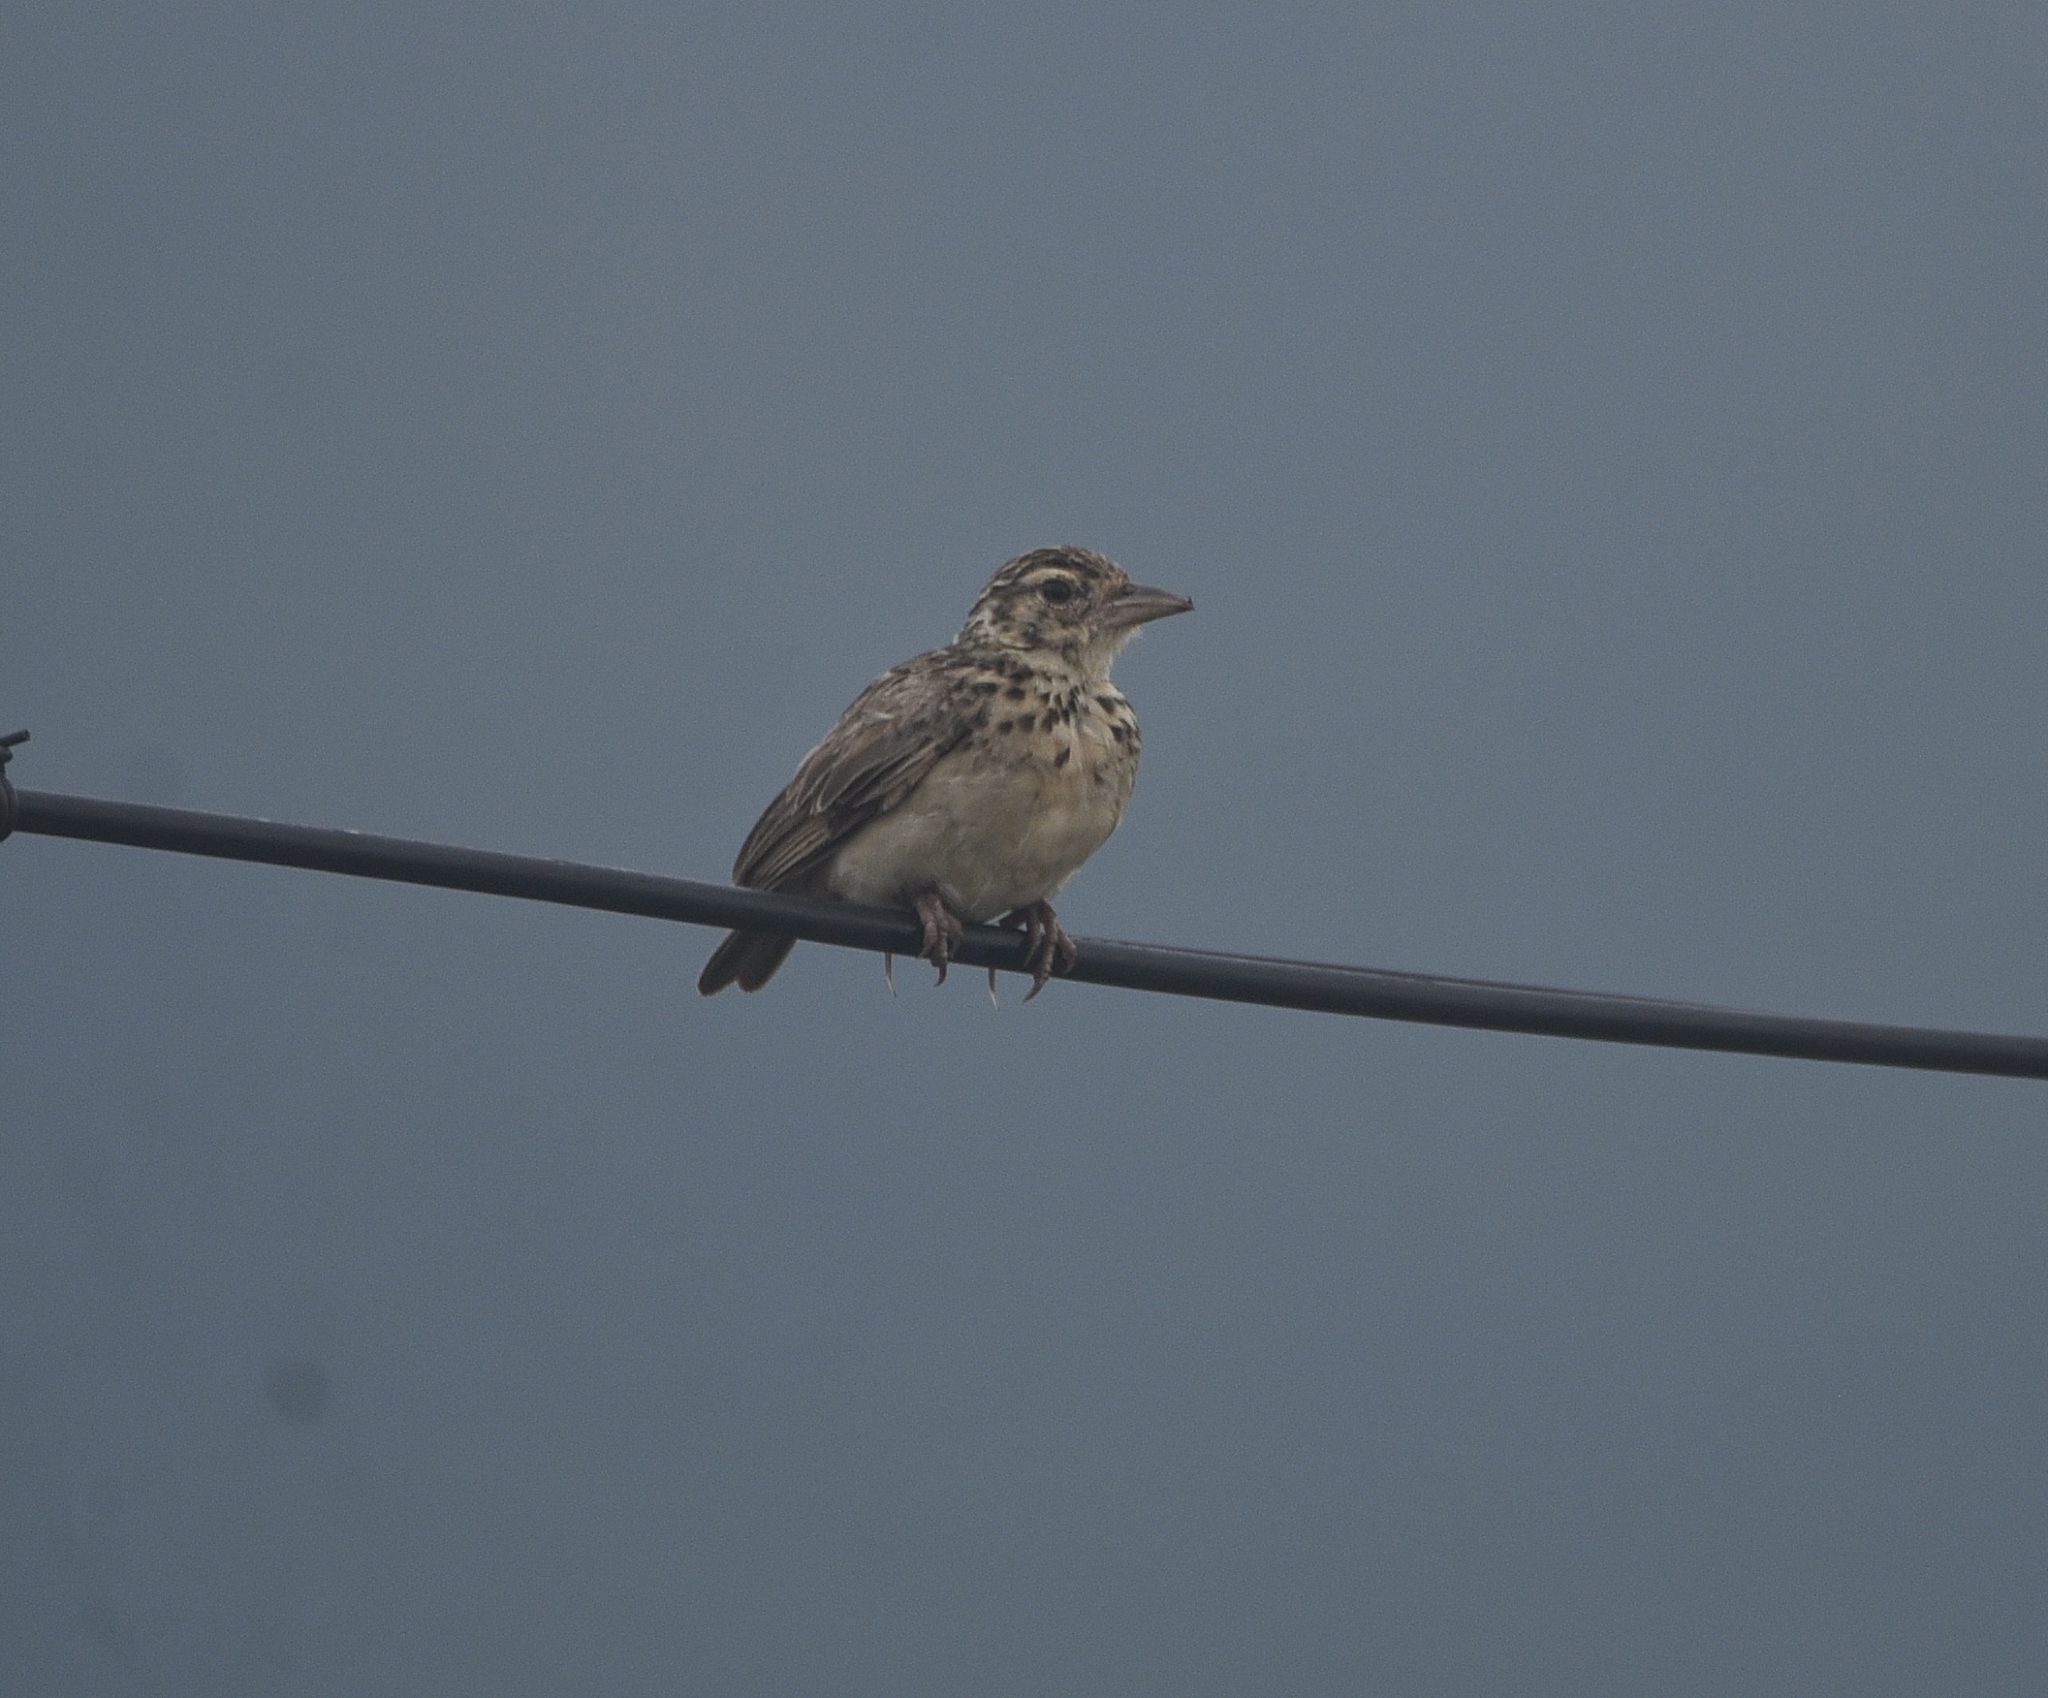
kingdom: Animalia
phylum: Chordata
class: Aves
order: Passeriformes
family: Alaudidae
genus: Mirafra
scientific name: Mirafra affinis
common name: Jerdon's bushlark
